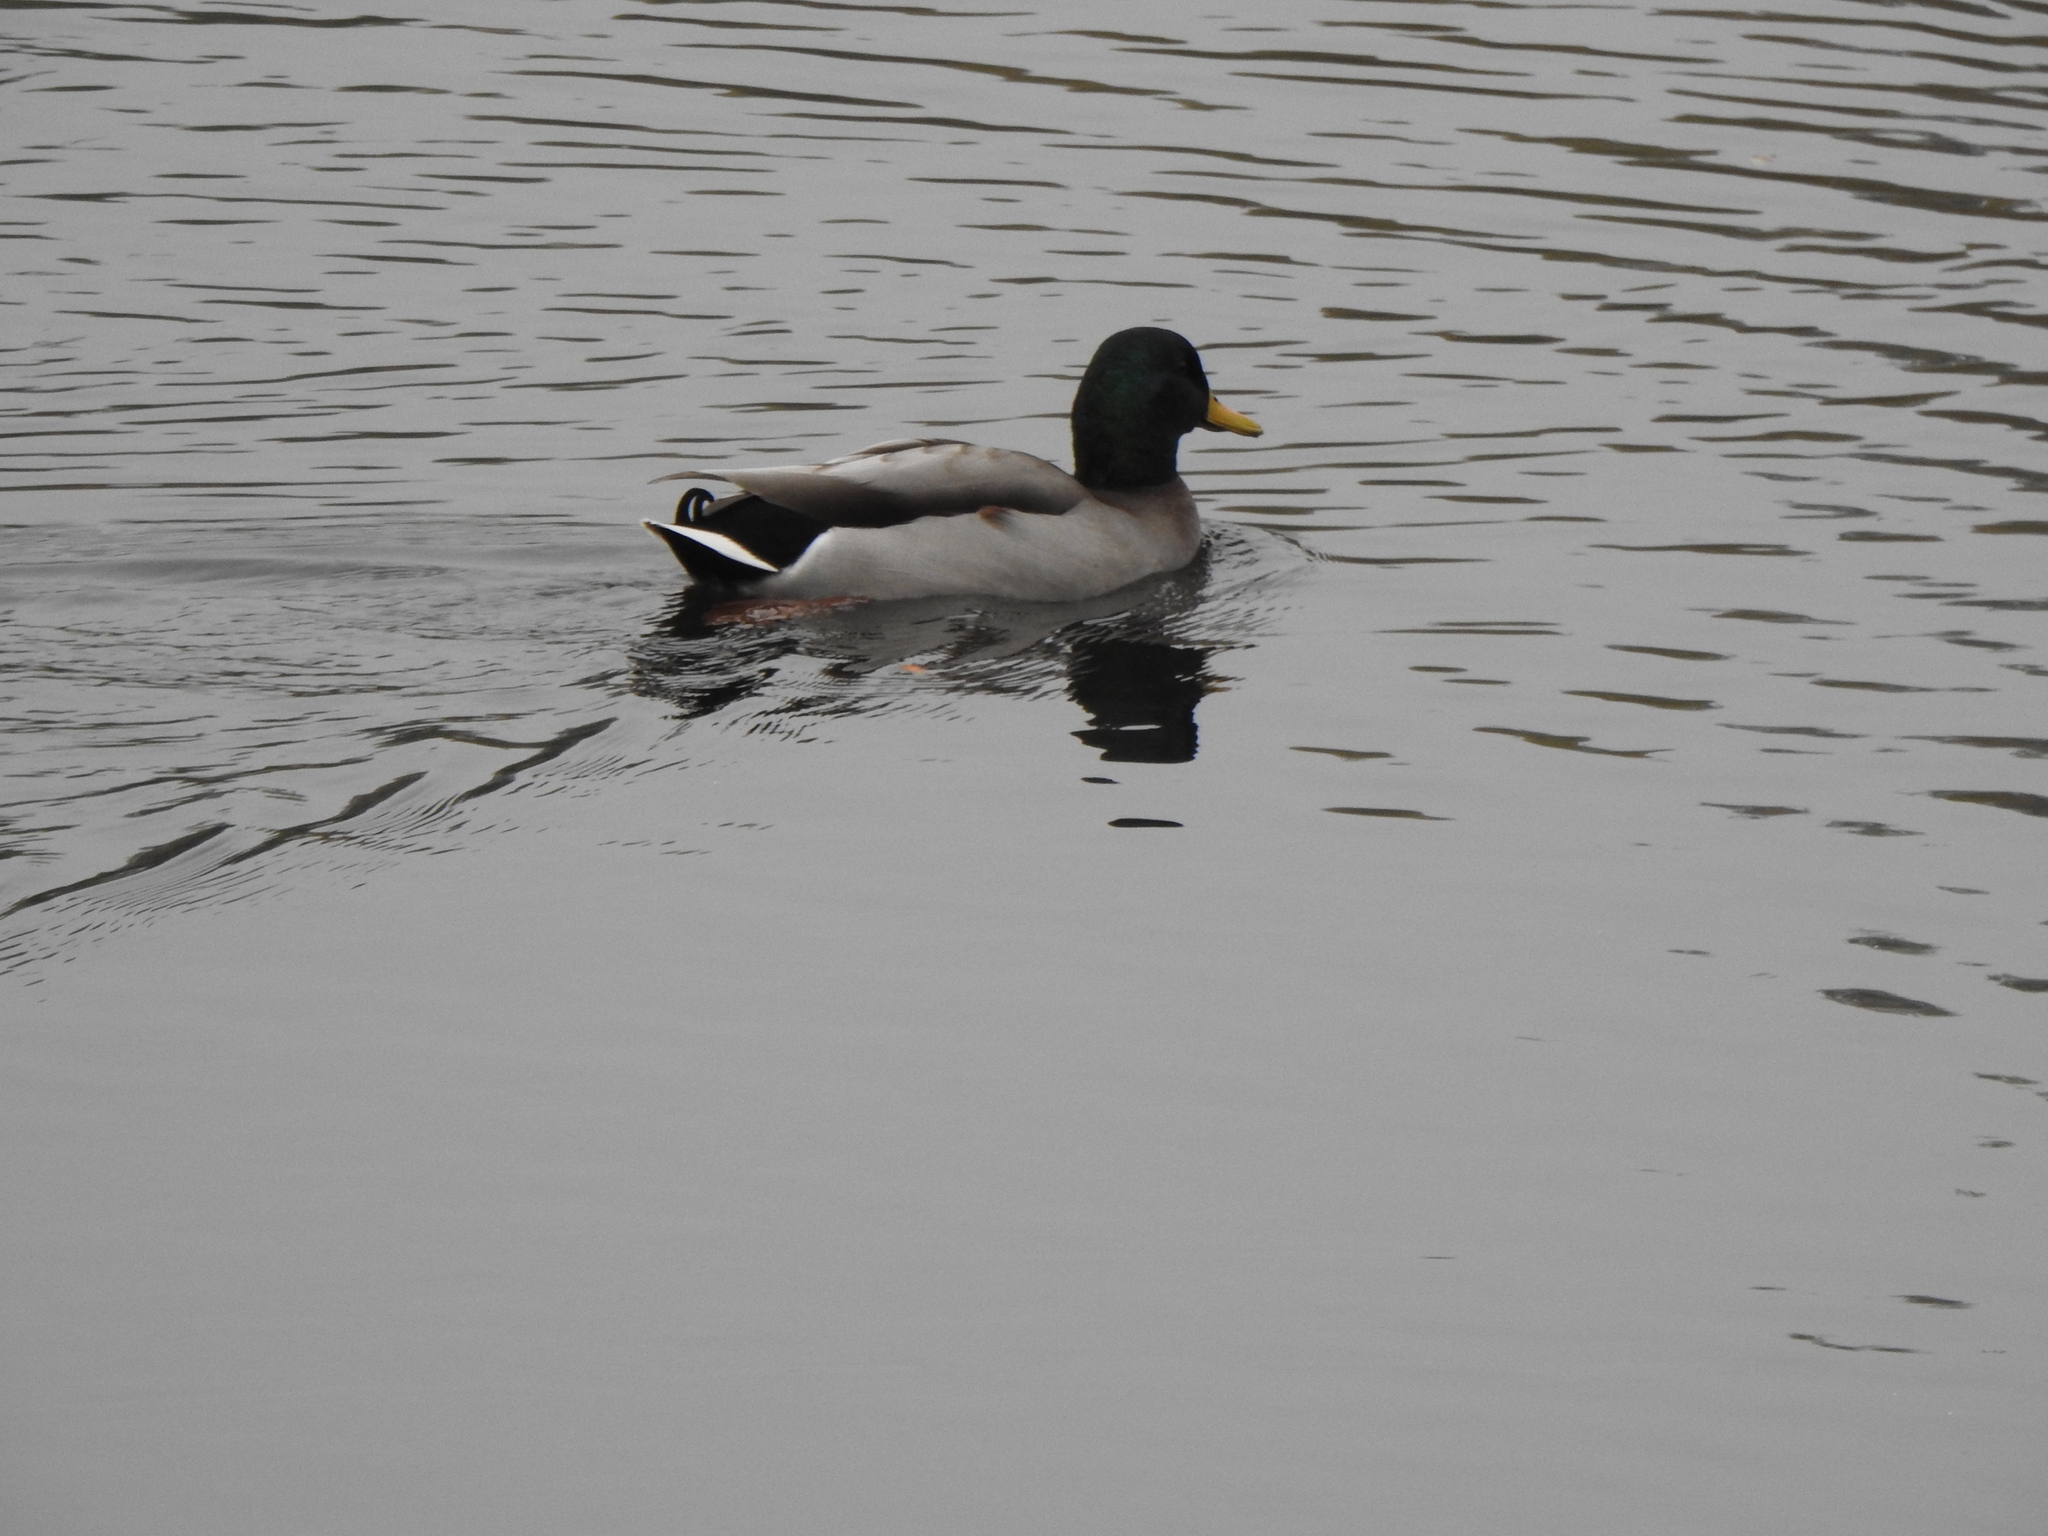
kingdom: Animalia
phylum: Chordata
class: Aves
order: Anseriformes
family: Anatidae
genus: Anas
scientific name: Anas platyrhynchos
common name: Mallard
